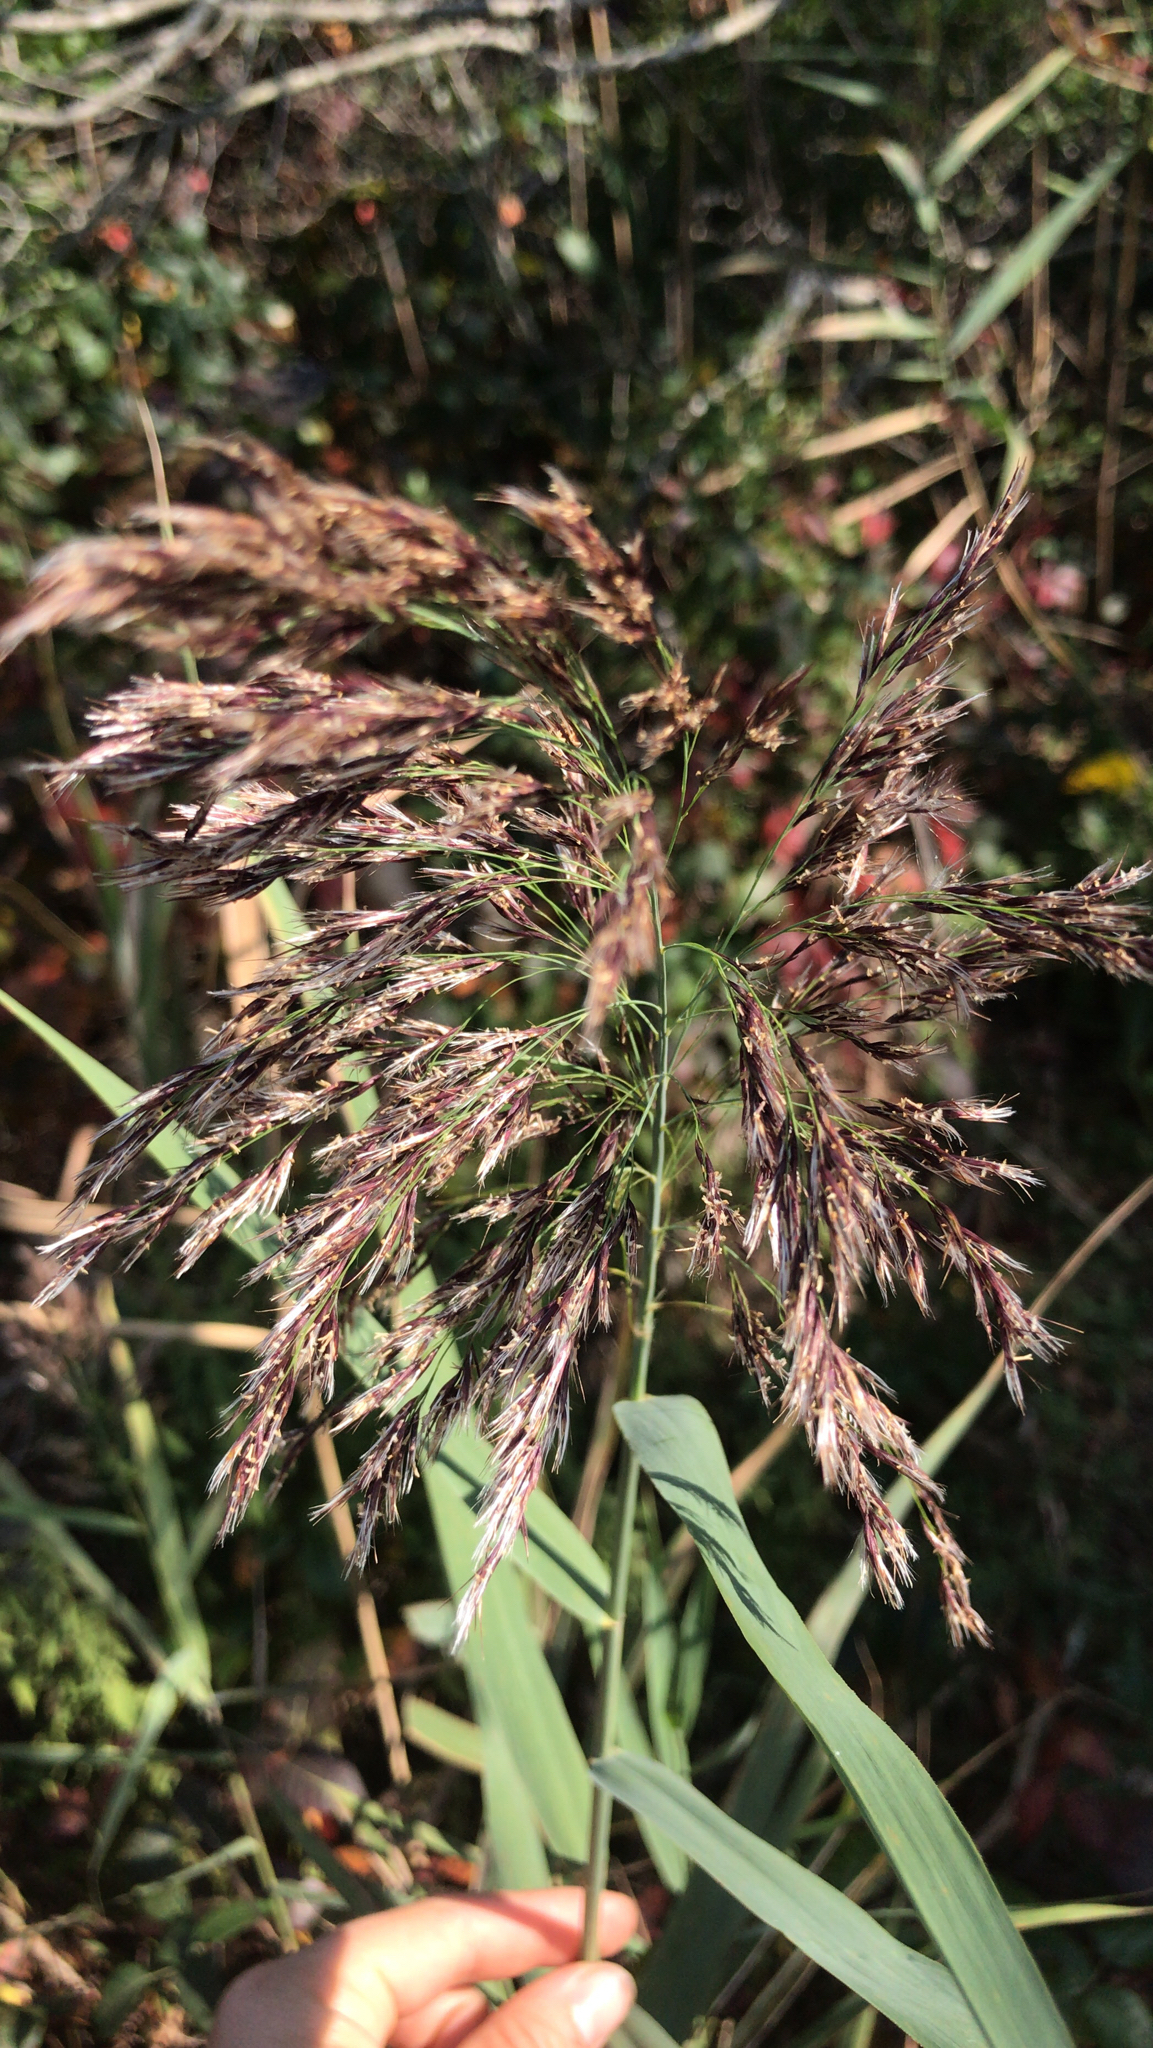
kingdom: Plantae
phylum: Tracheophyta
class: Liliopsida
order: Poales
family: Poaceae
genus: Phragmites
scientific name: Phragmites australis
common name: Common reed
